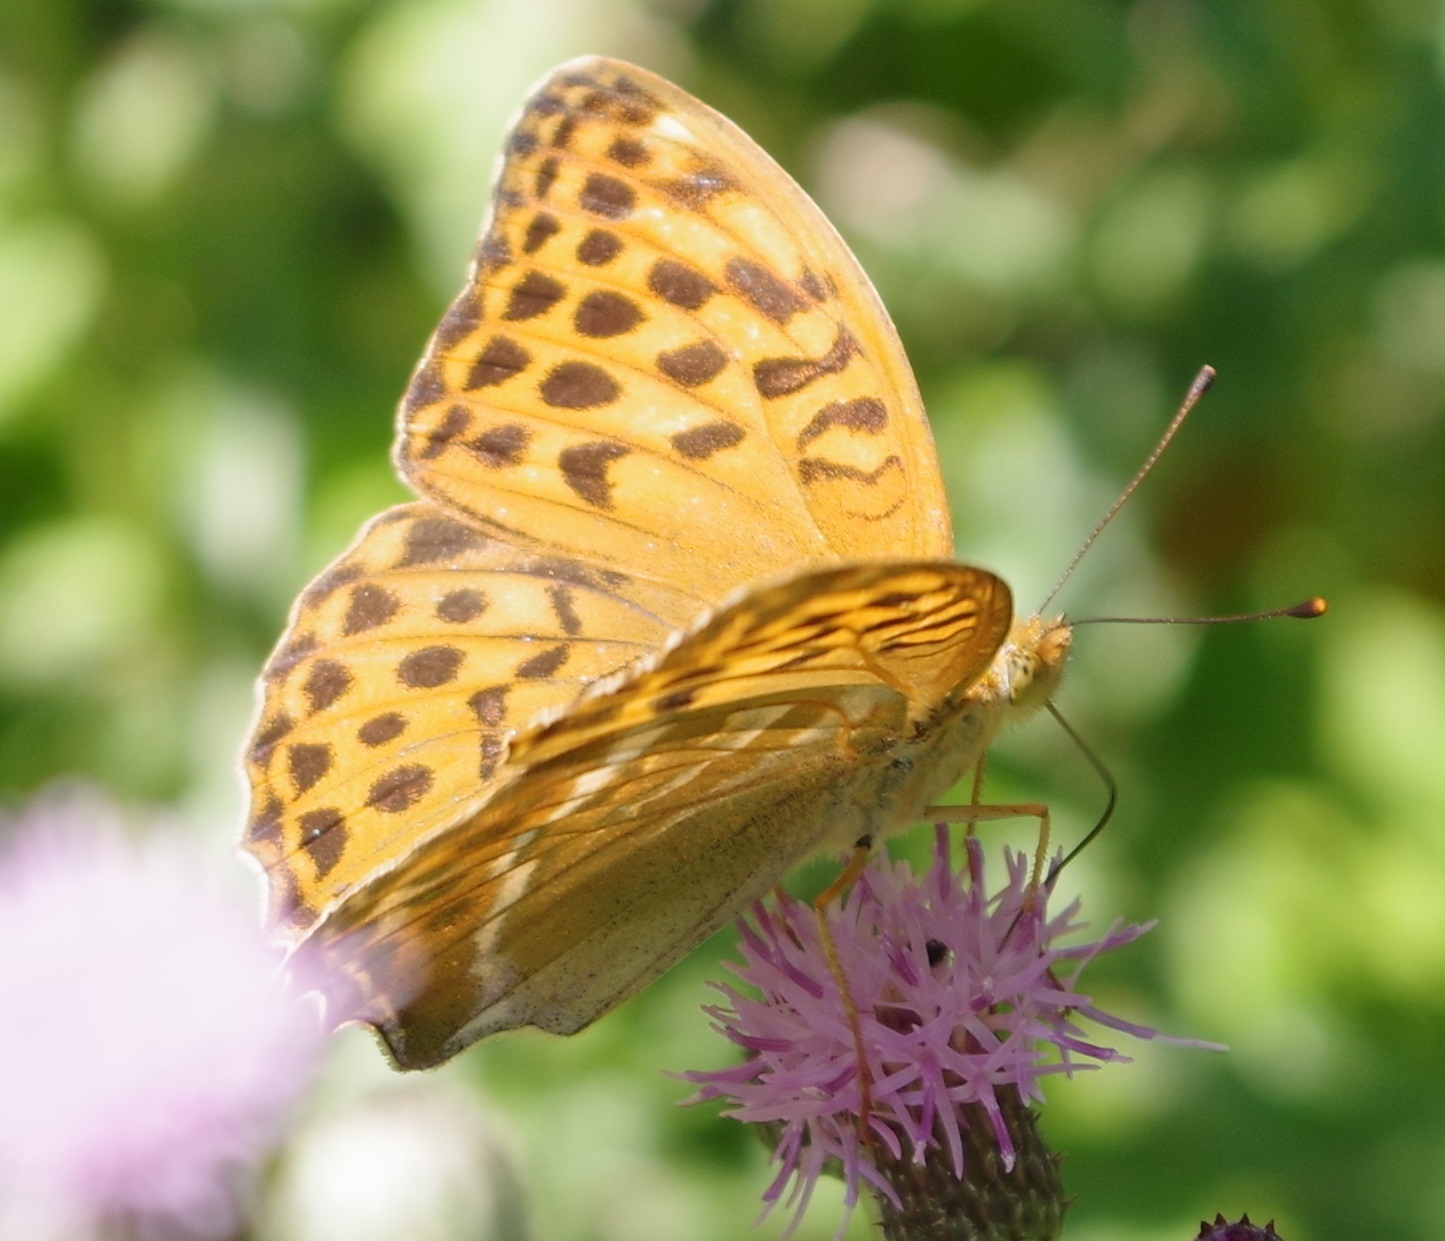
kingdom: Animalia
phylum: Arthropoda
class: Insecta
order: Lepidoptera
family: Nymphalidae
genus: Argynnis
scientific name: Argynnis paphia
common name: Silver-washed fritillary
